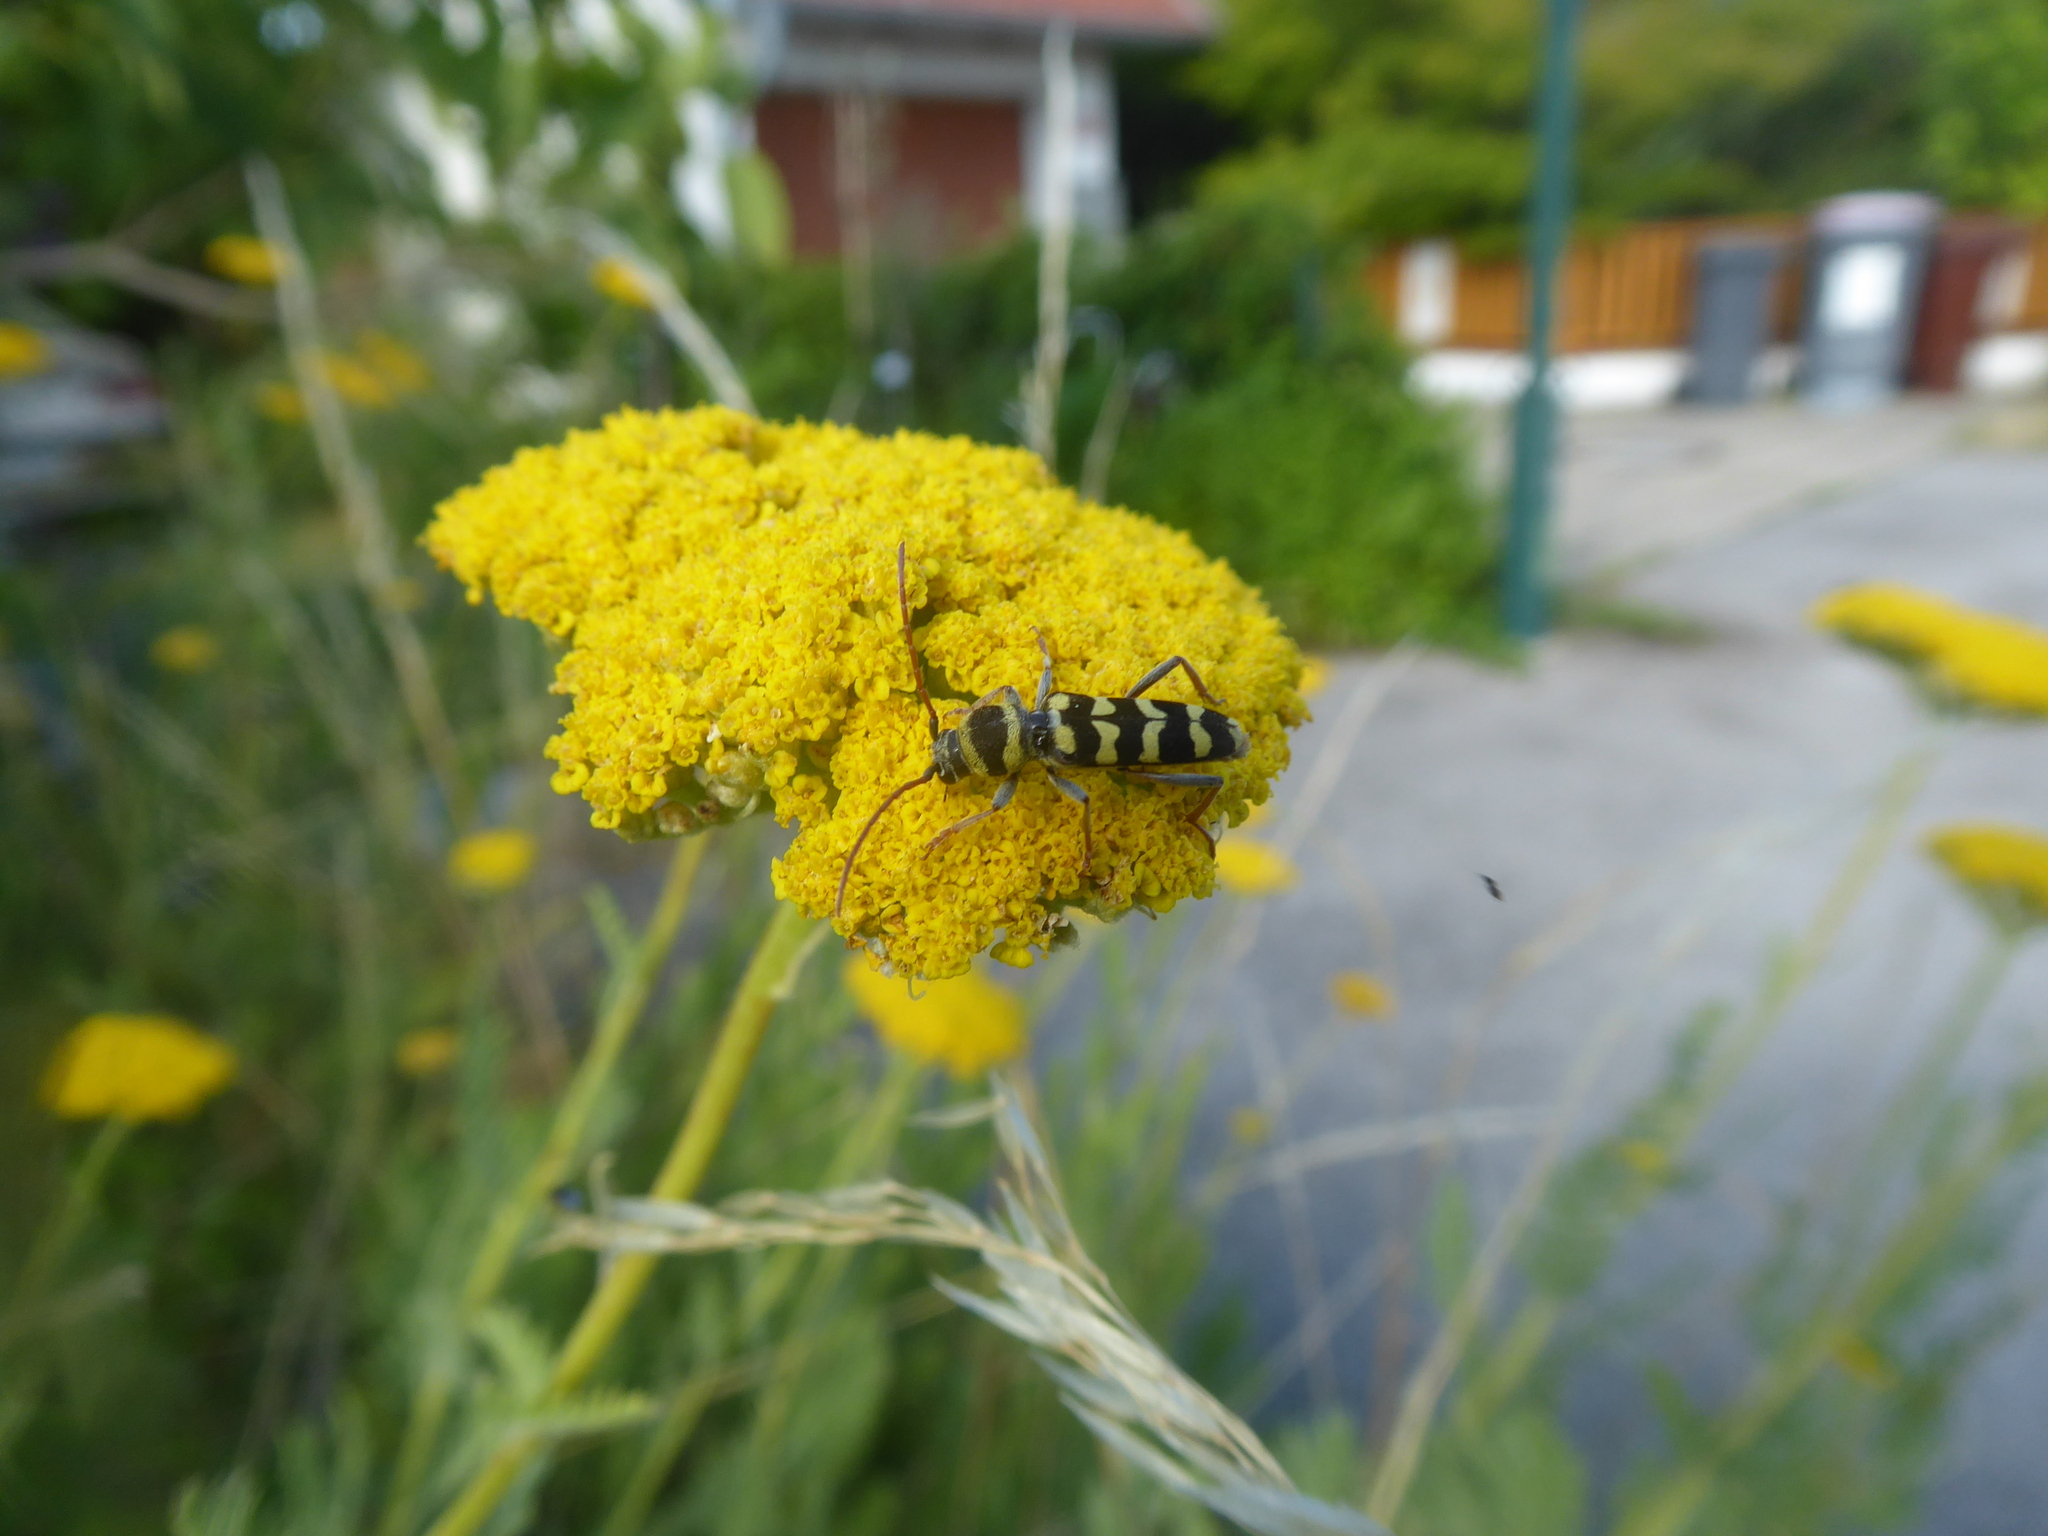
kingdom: Animalia
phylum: Arthropoda
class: Insecta
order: Coleoptera
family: Cerambycidae
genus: Plagionotus
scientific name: Plagionotus floralis
